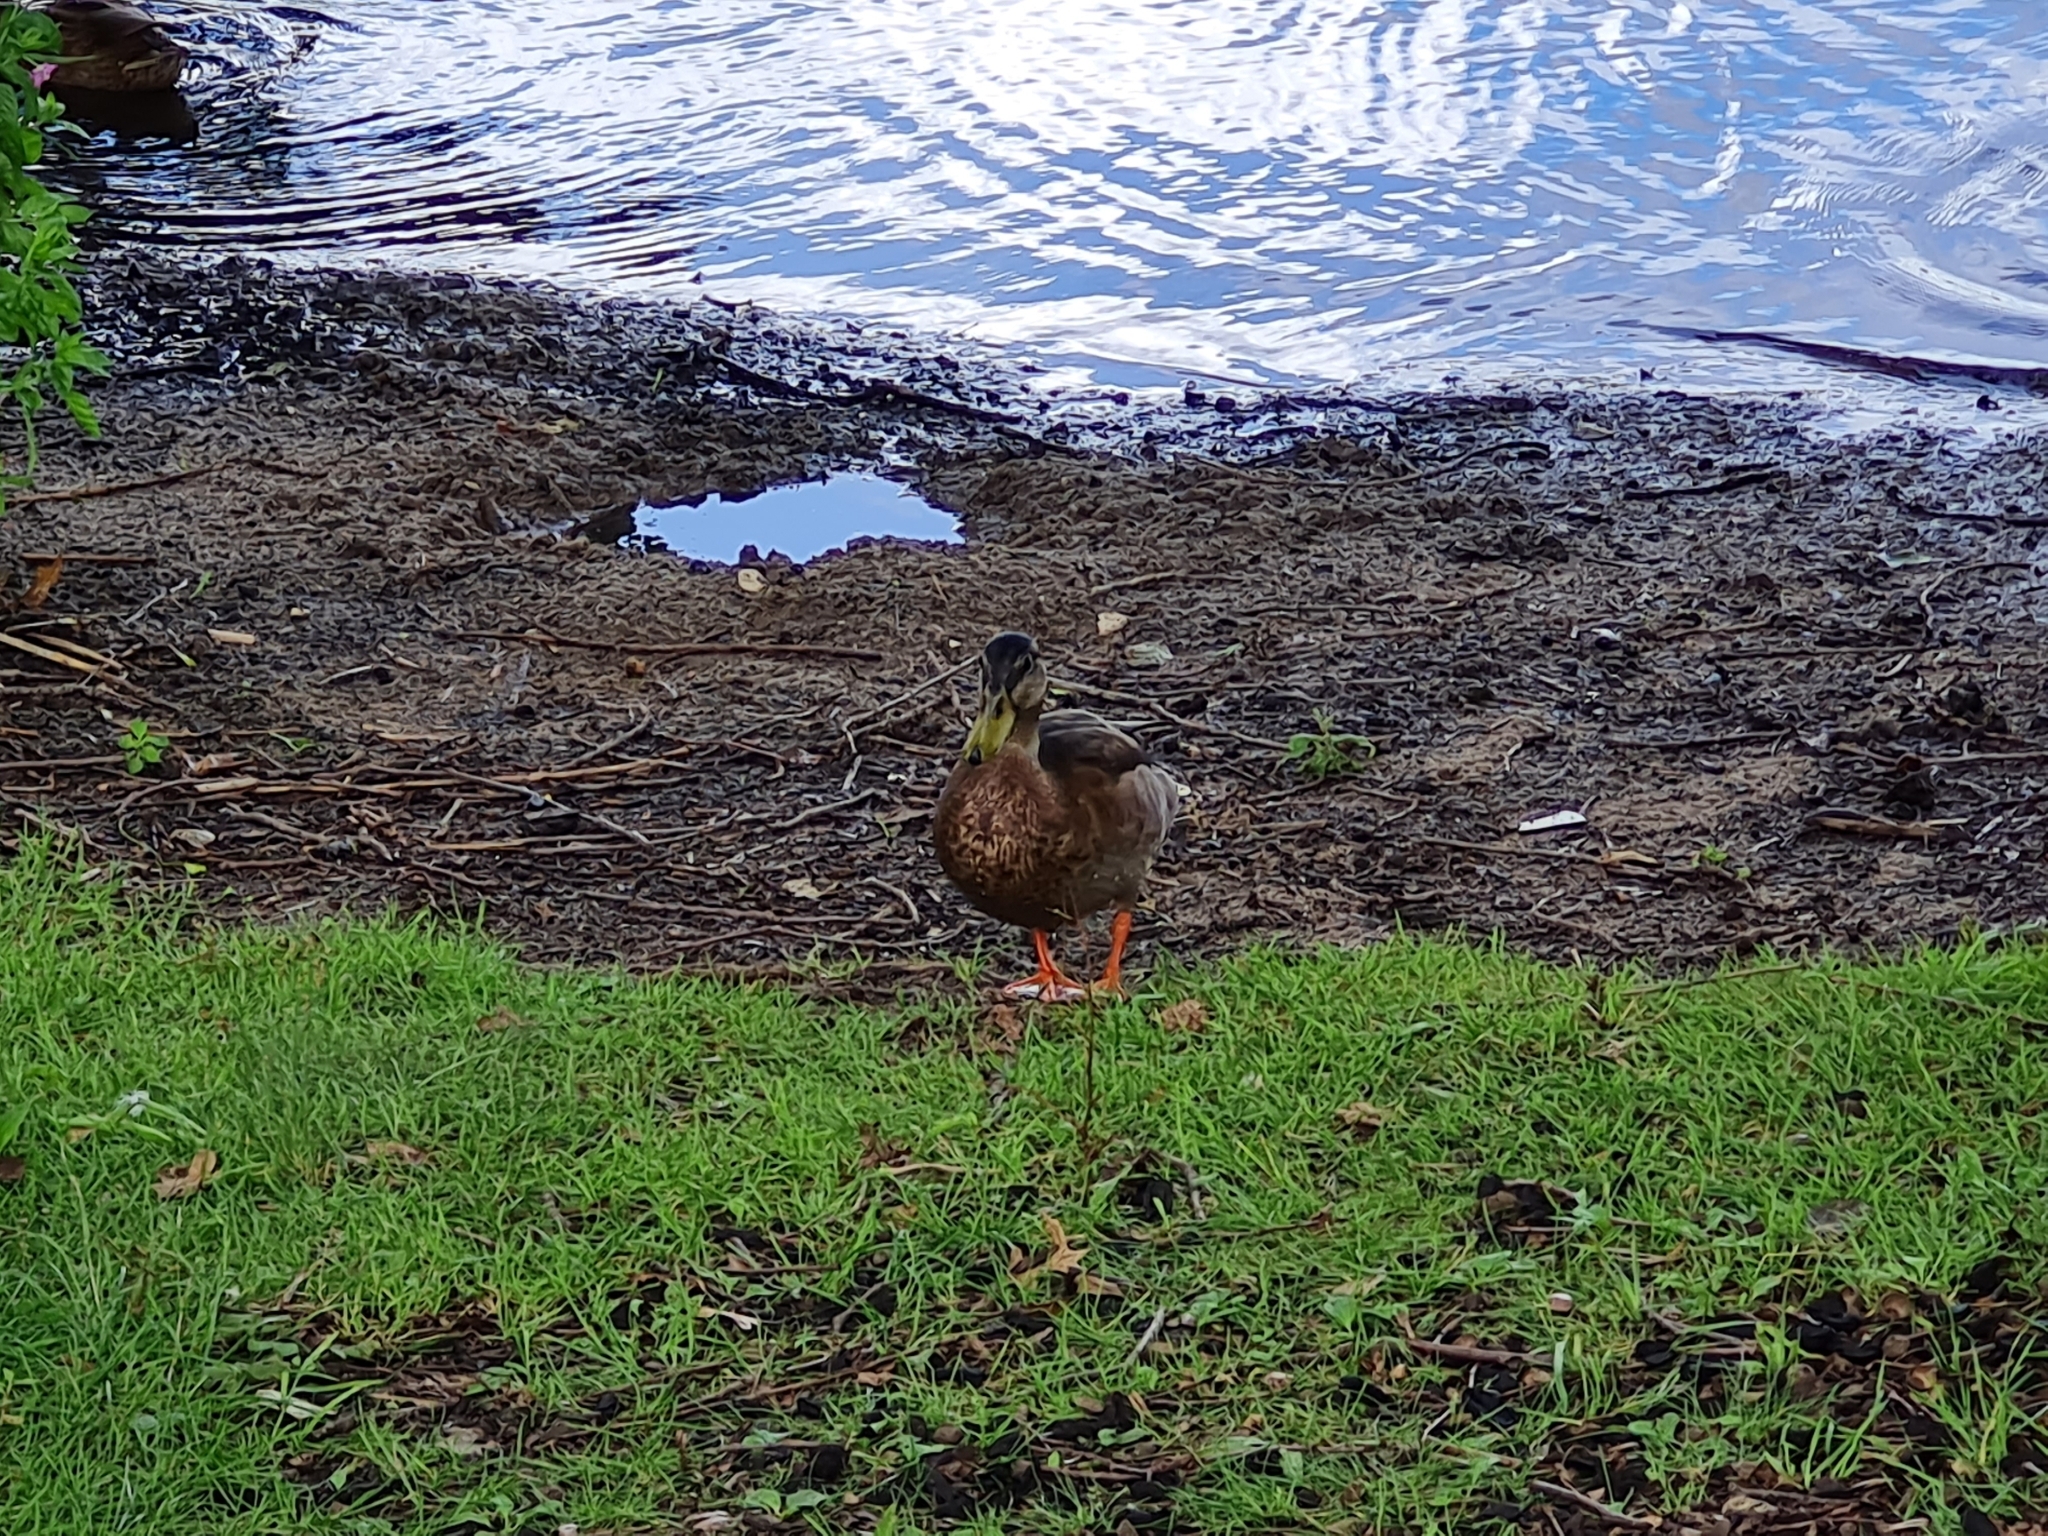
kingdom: Animalia
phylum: Chordata
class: Aves
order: Anseriformes
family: Anatidae
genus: Anas
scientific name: Anas platyrhynchos
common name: Mallard
